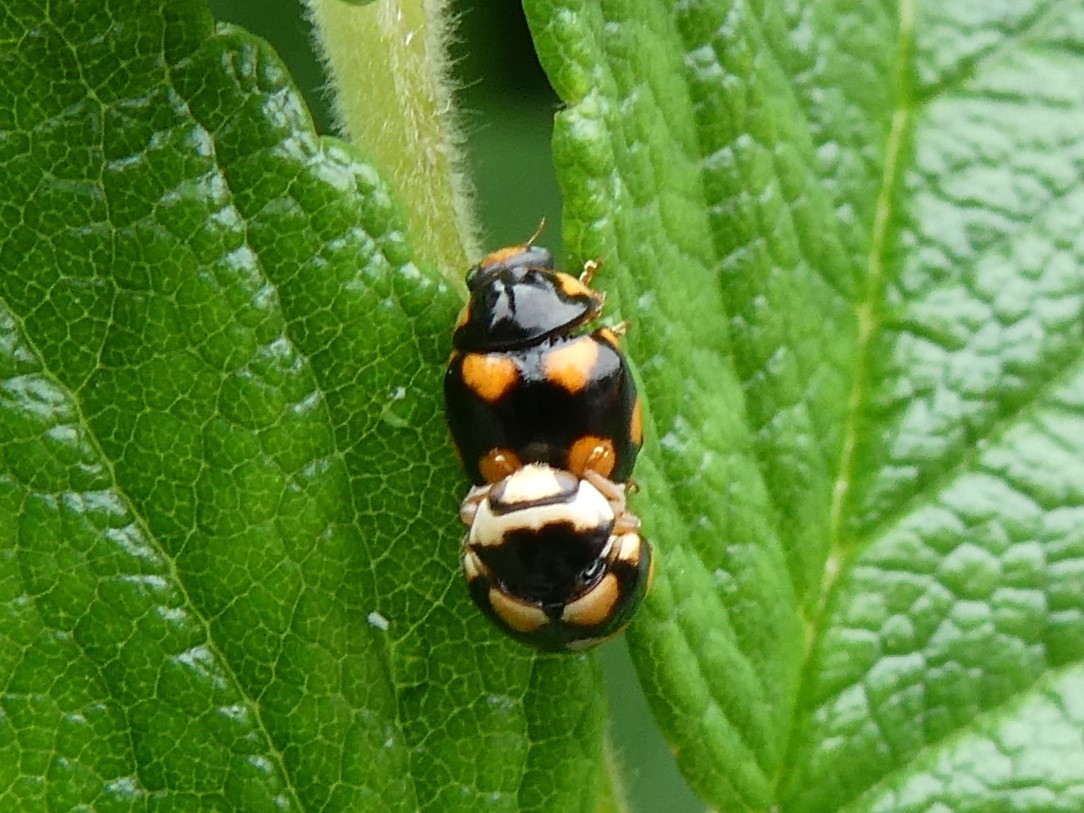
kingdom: Animalia
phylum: Arthropoda
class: Insecta
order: Coleoptera
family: Coccinellidae
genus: Brachiacantha
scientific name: Brachiacantha ursina
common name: Ursine spurleg lady beetle
